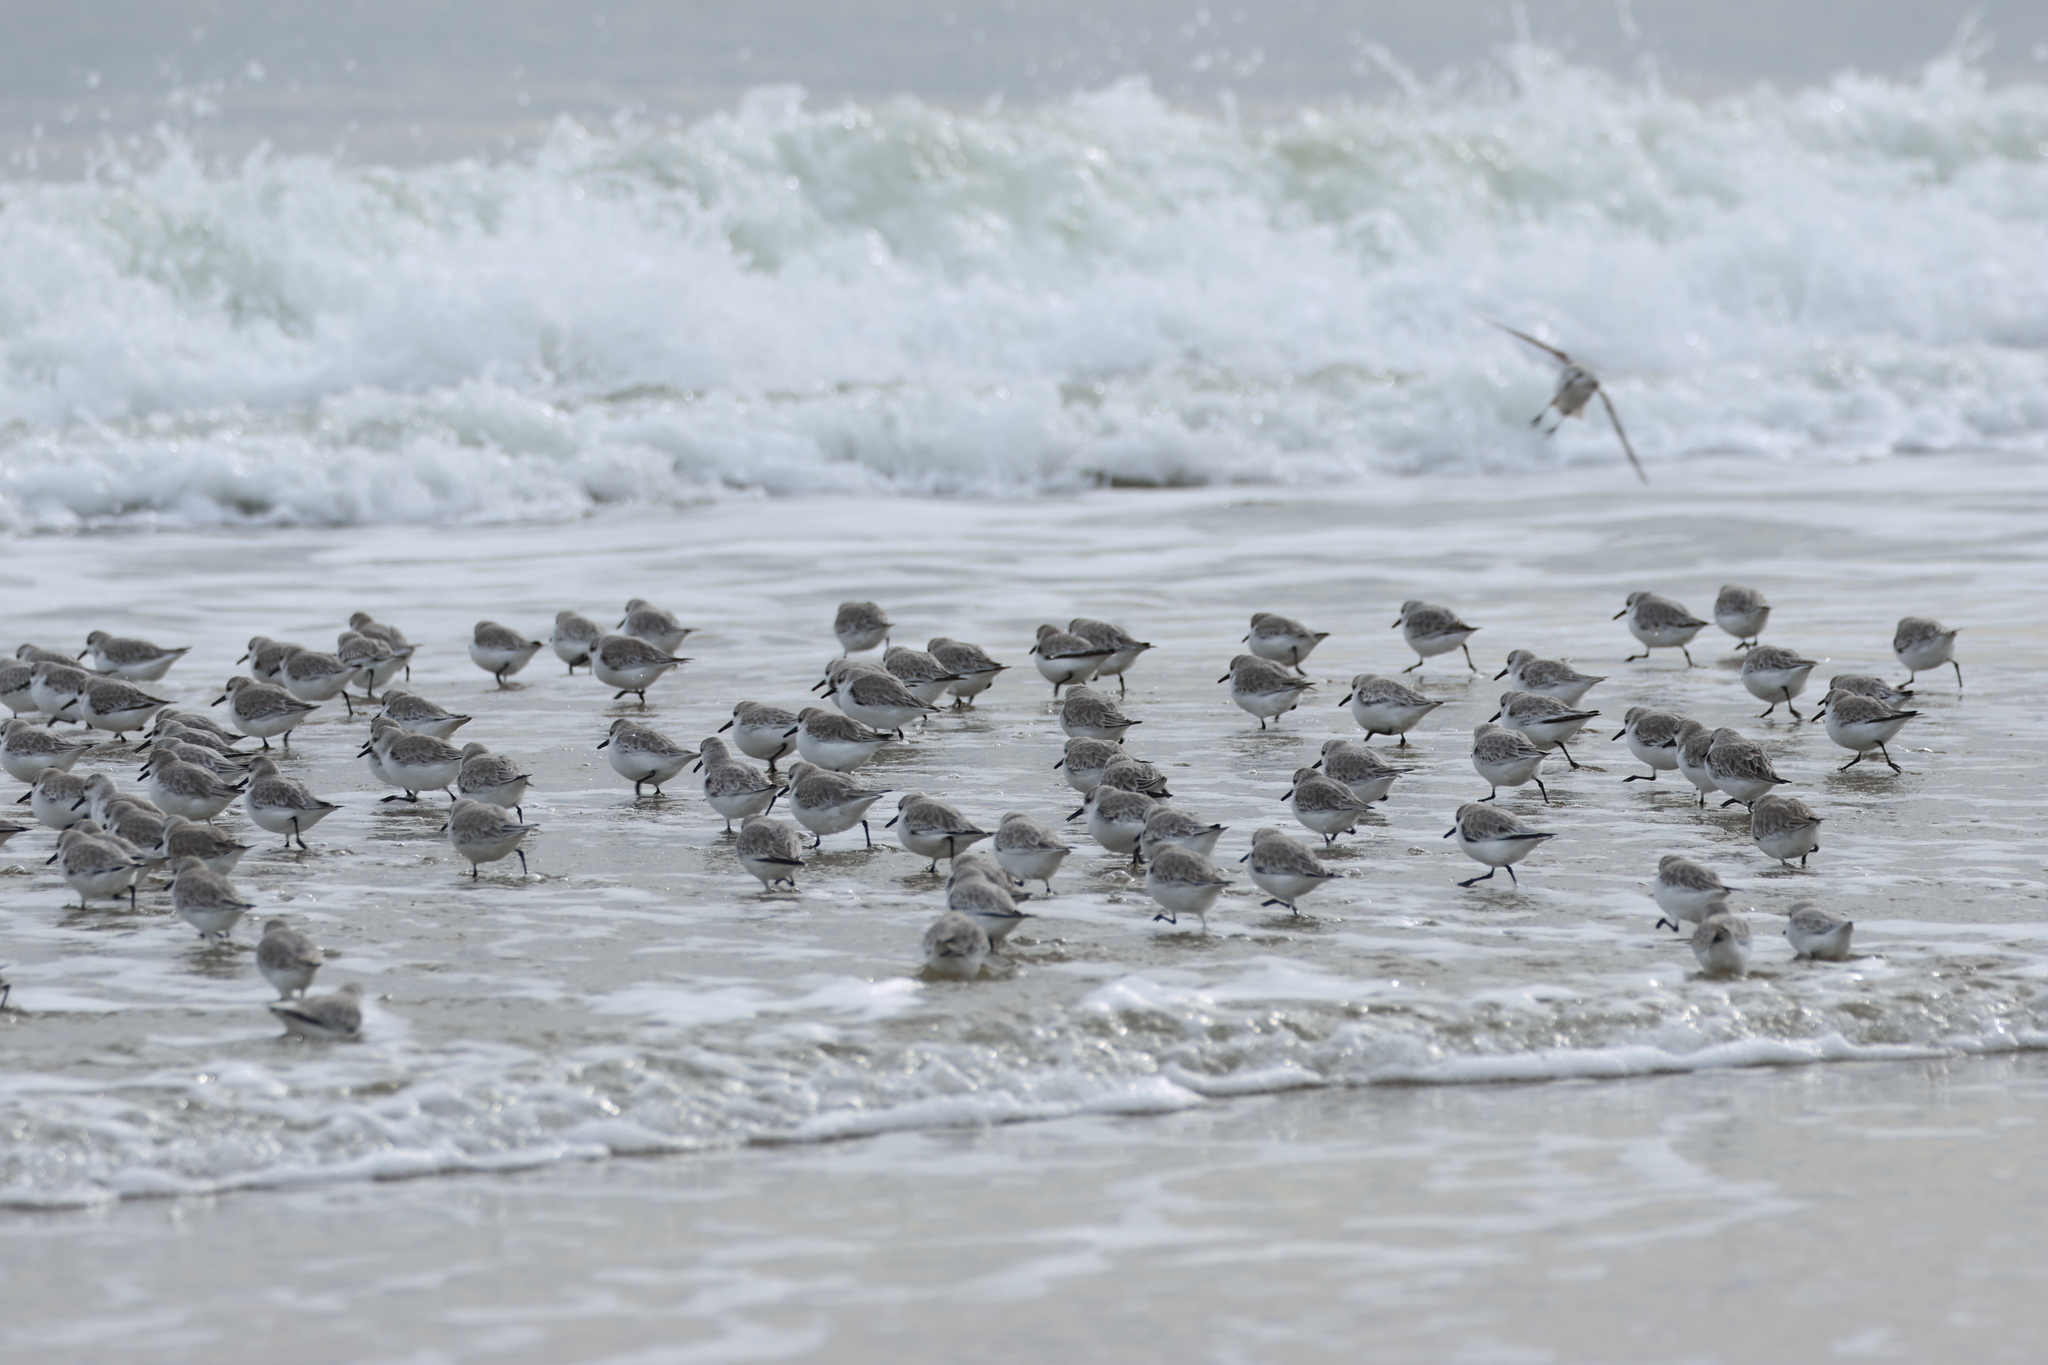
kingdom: Animalia
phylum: Chordata
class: Aves
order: Charadriiformes
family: Scolopacidae
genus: Calidris
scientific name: Calidris alba
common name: Sanderling
